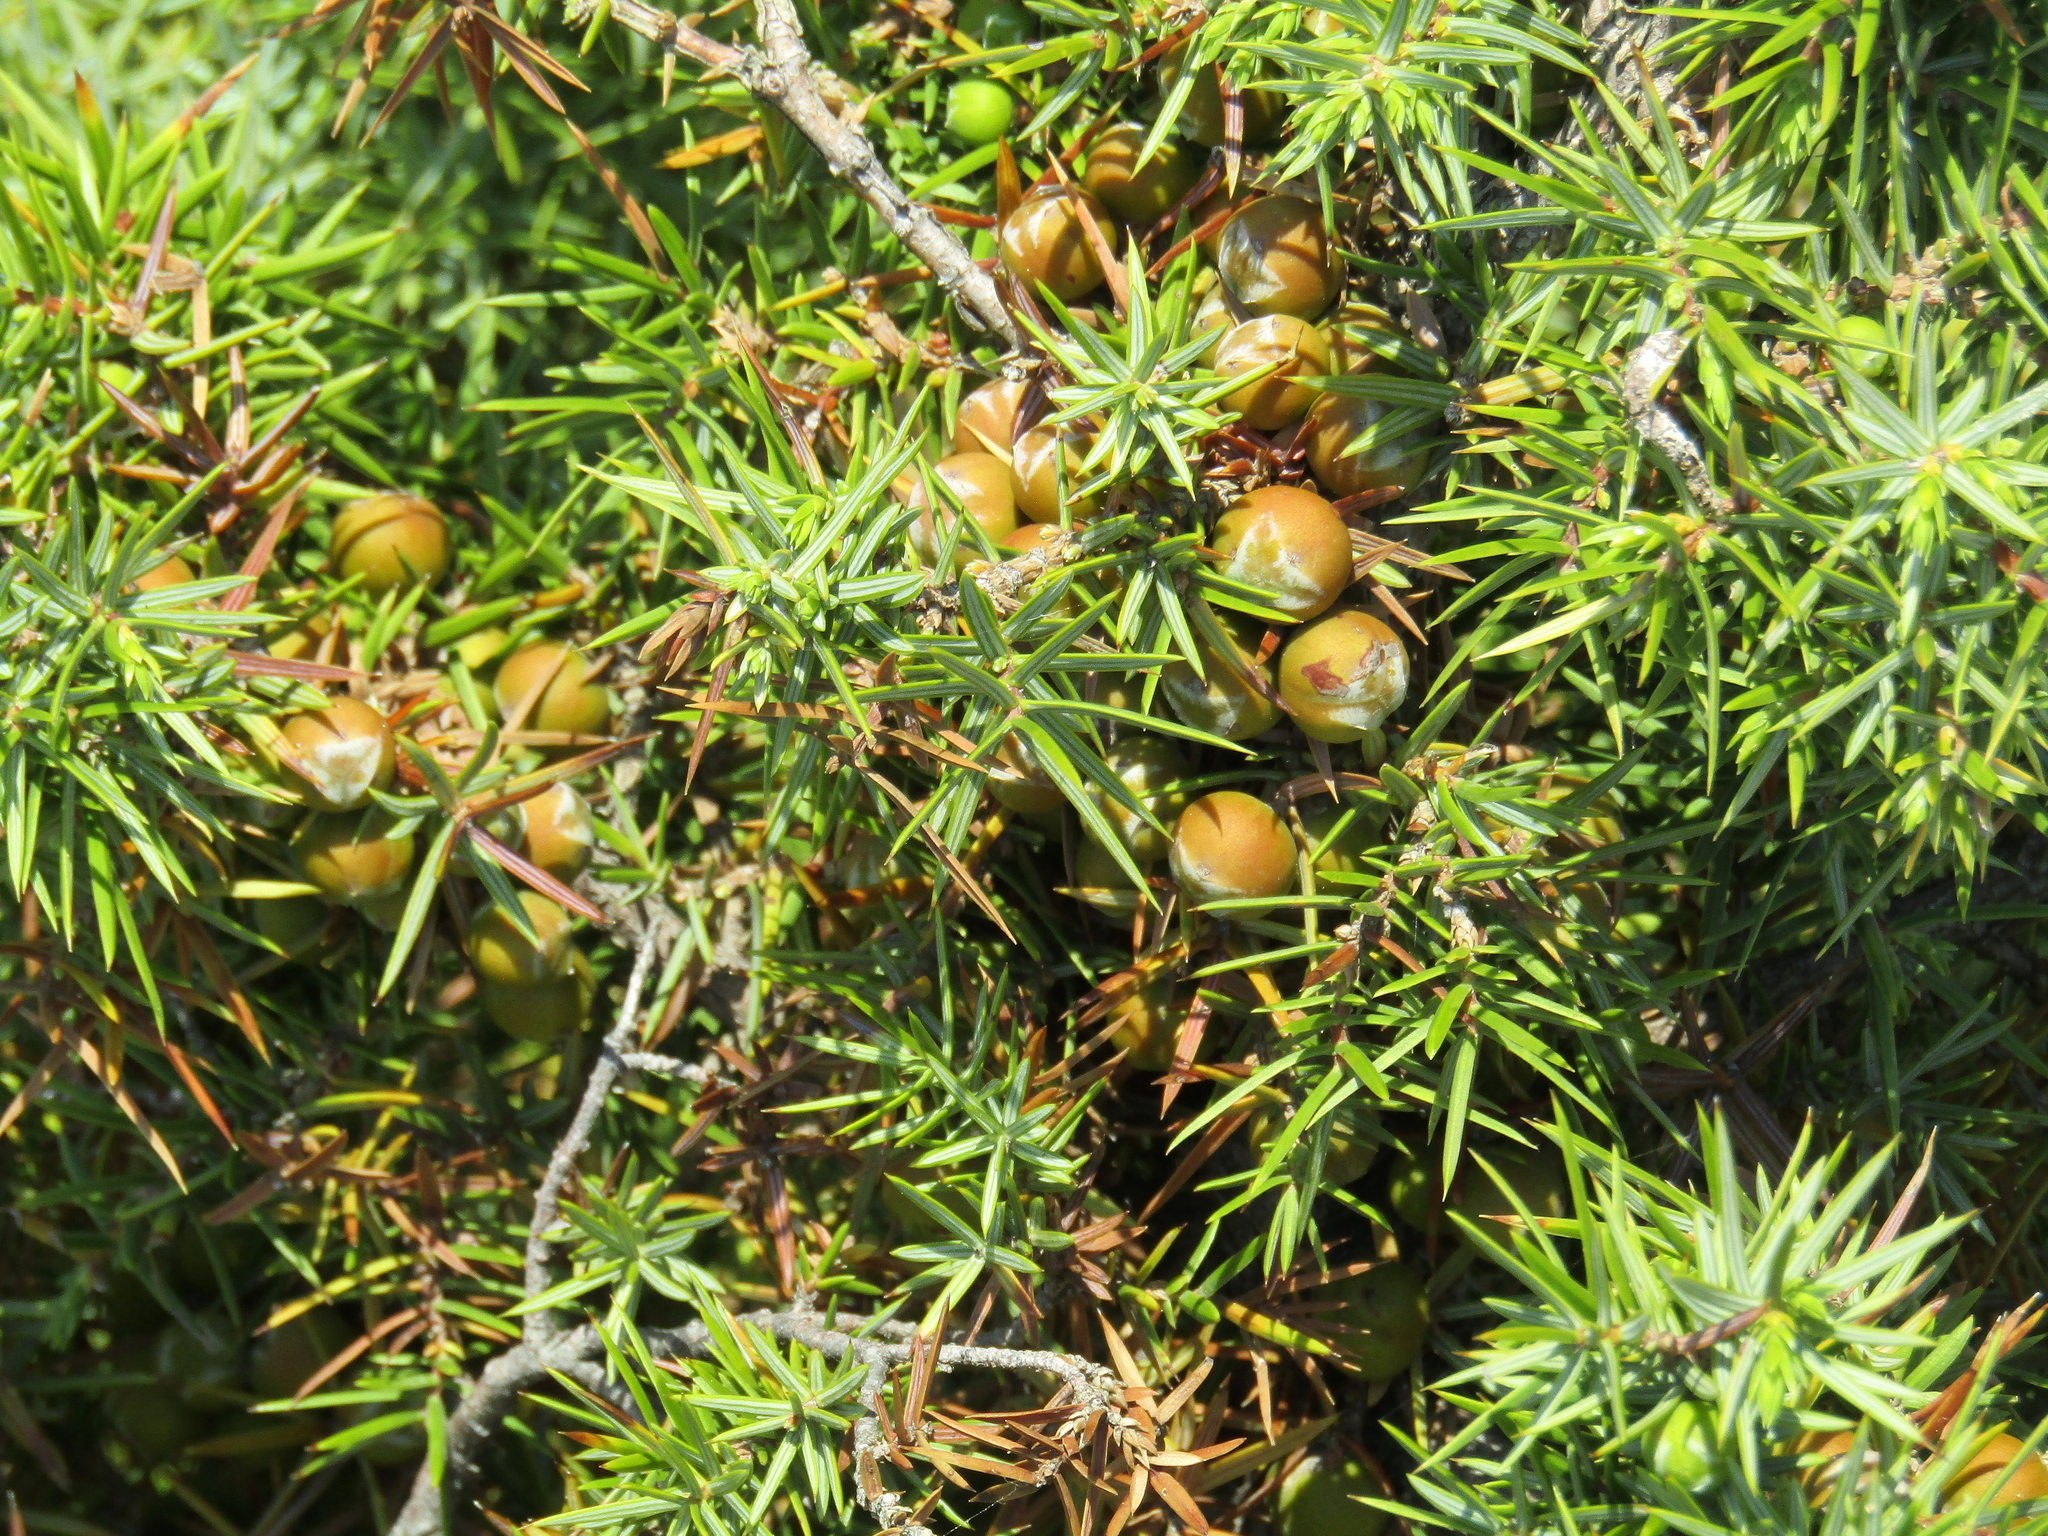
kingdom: Plantae
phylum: Tracheophyta
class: Pinopsida
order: Pinales
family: Cupressaceae
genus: Juniperus
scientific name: Juniperus oxycedrus
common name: Prickly juniper
